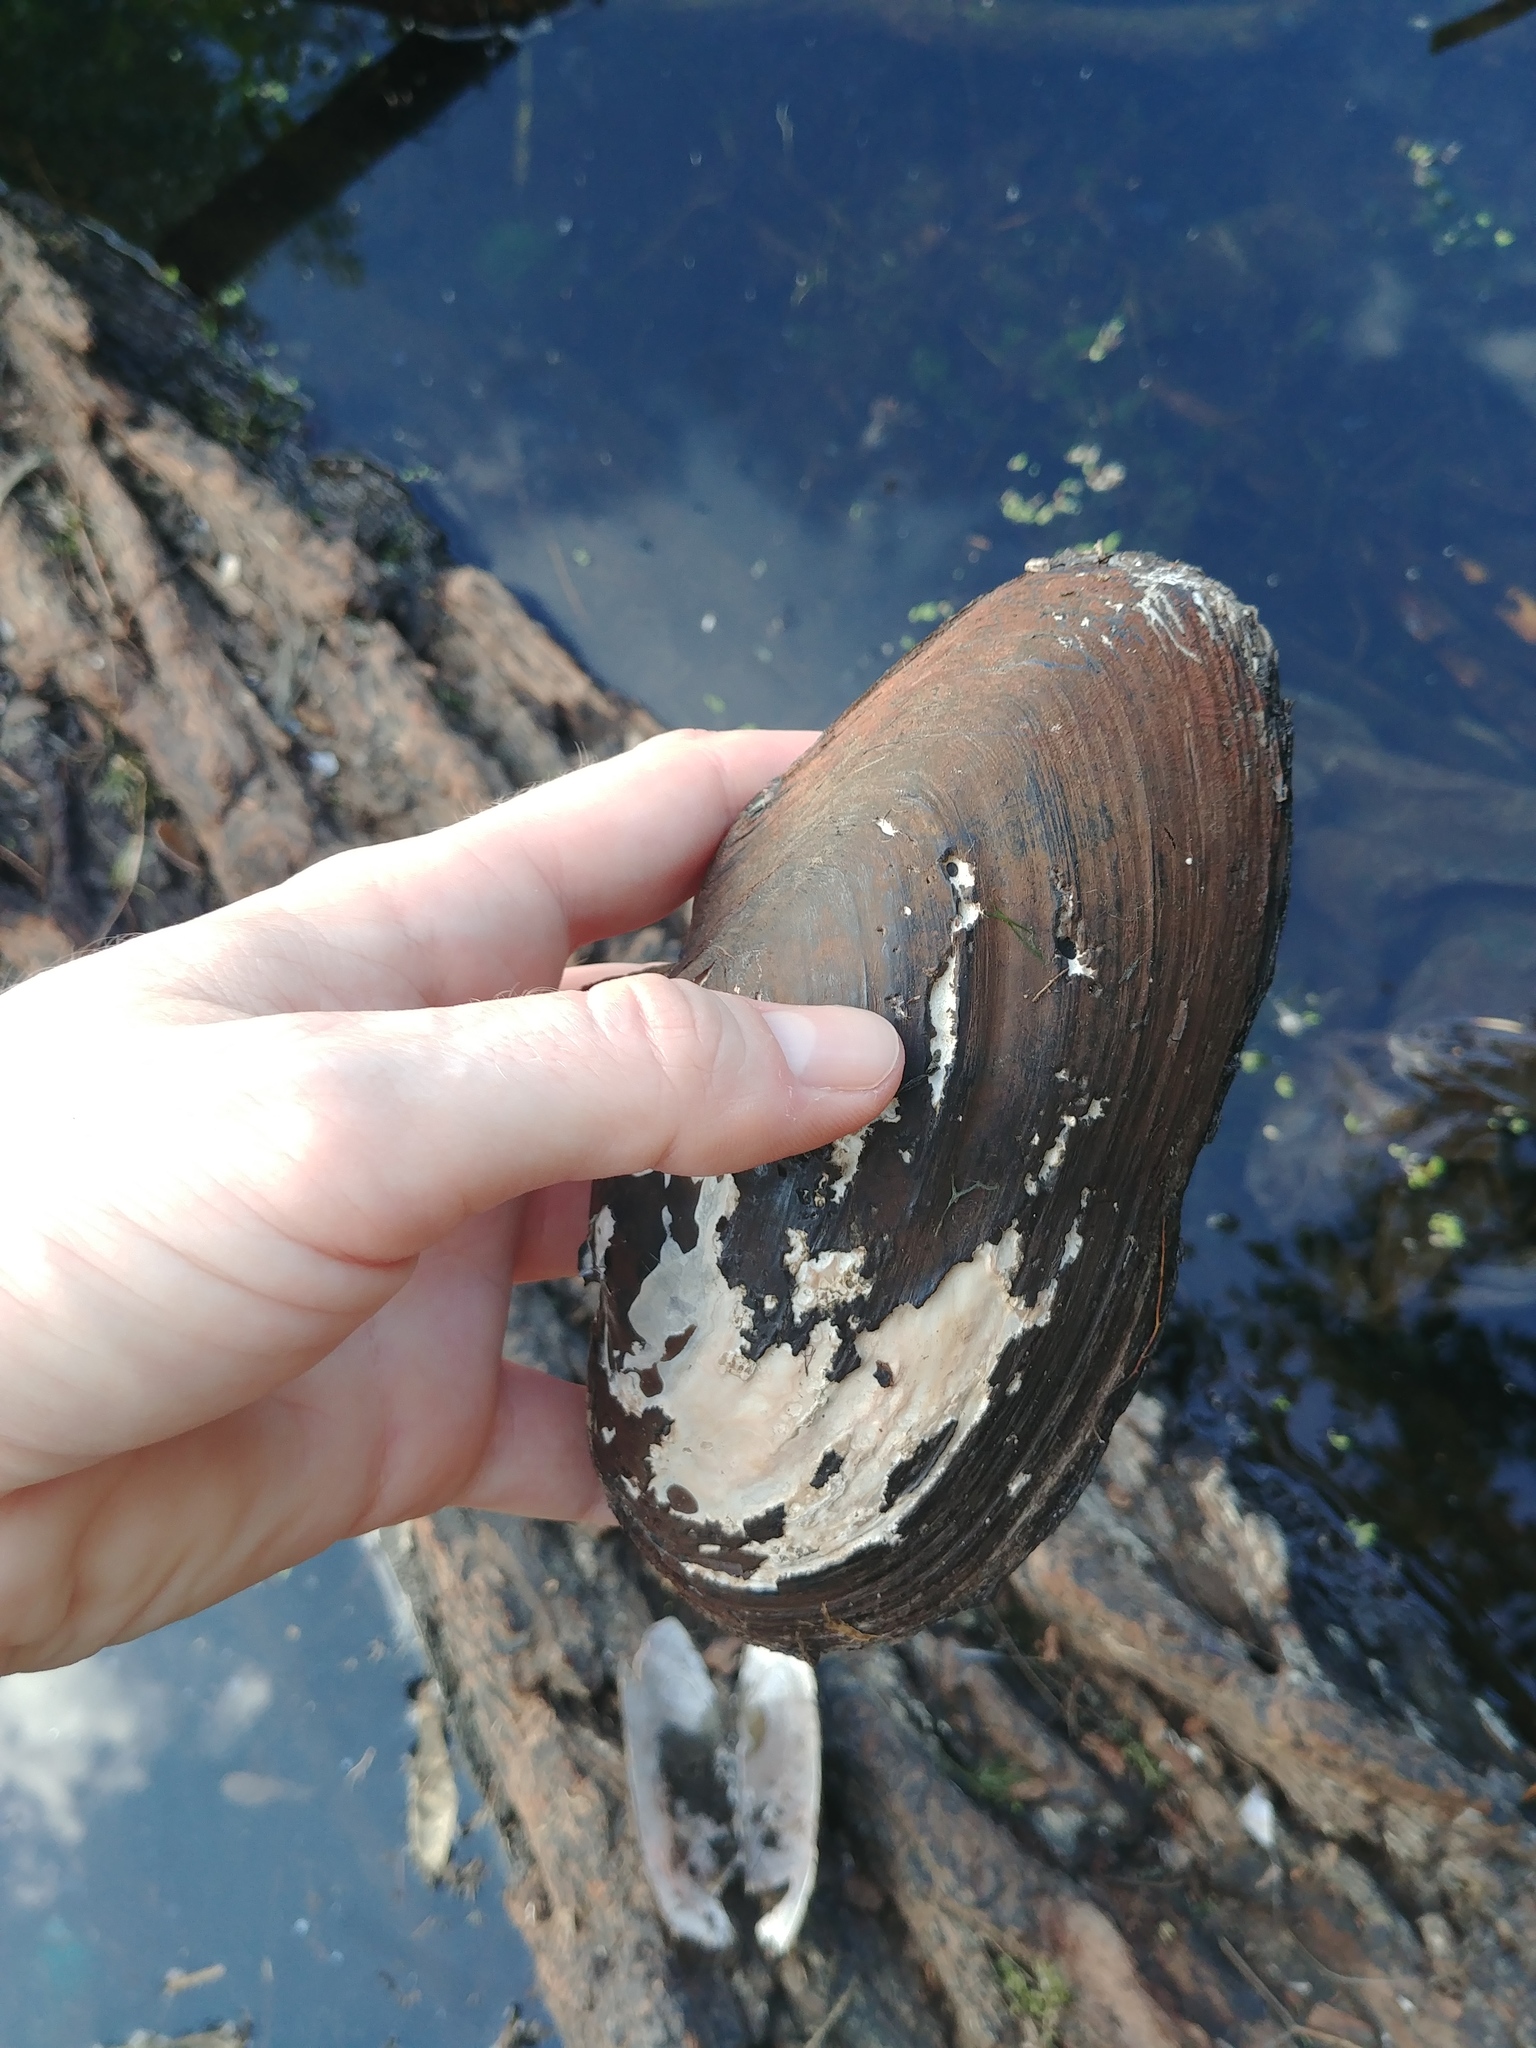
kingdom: Animalia
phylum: Mollusca
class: Bivalvia
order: Unionida
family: Unionidae
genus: Utterbackiana
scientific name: Utterbackiana implicata
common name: Alewife floater
